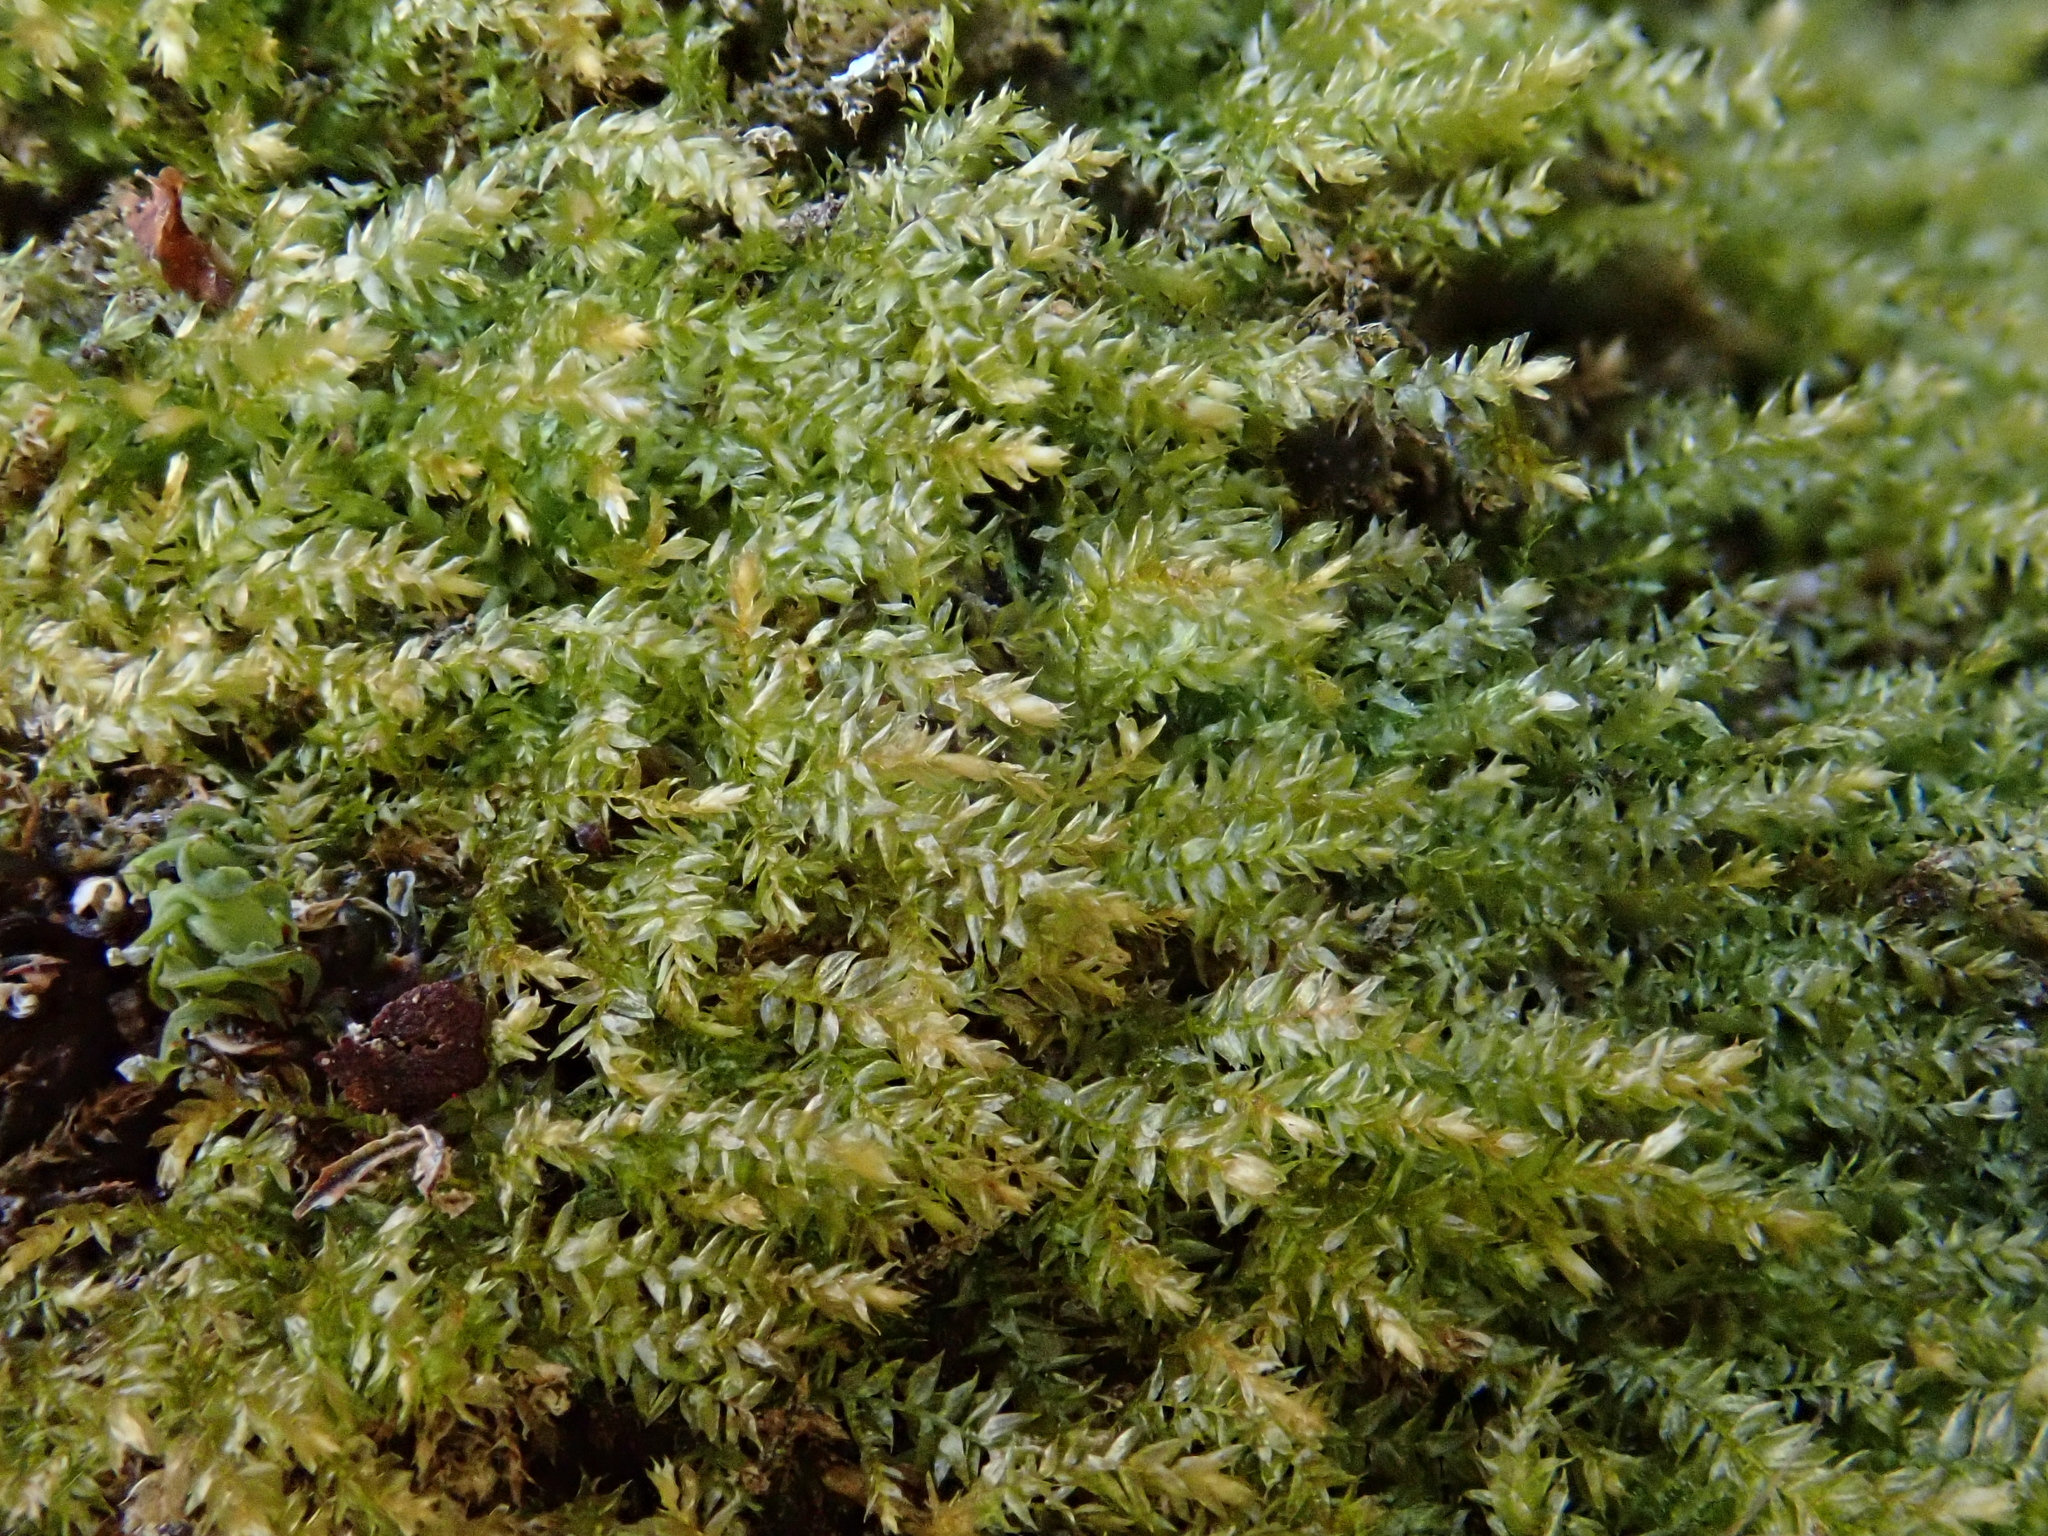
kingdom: Plantae
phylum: Bryophyta
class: Bryopsida
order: Hypnales
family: Brachytheciaceae
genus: Oxyrrhynchium
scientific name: Oxyrrhynchium hians
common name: Spreading beaked moss
